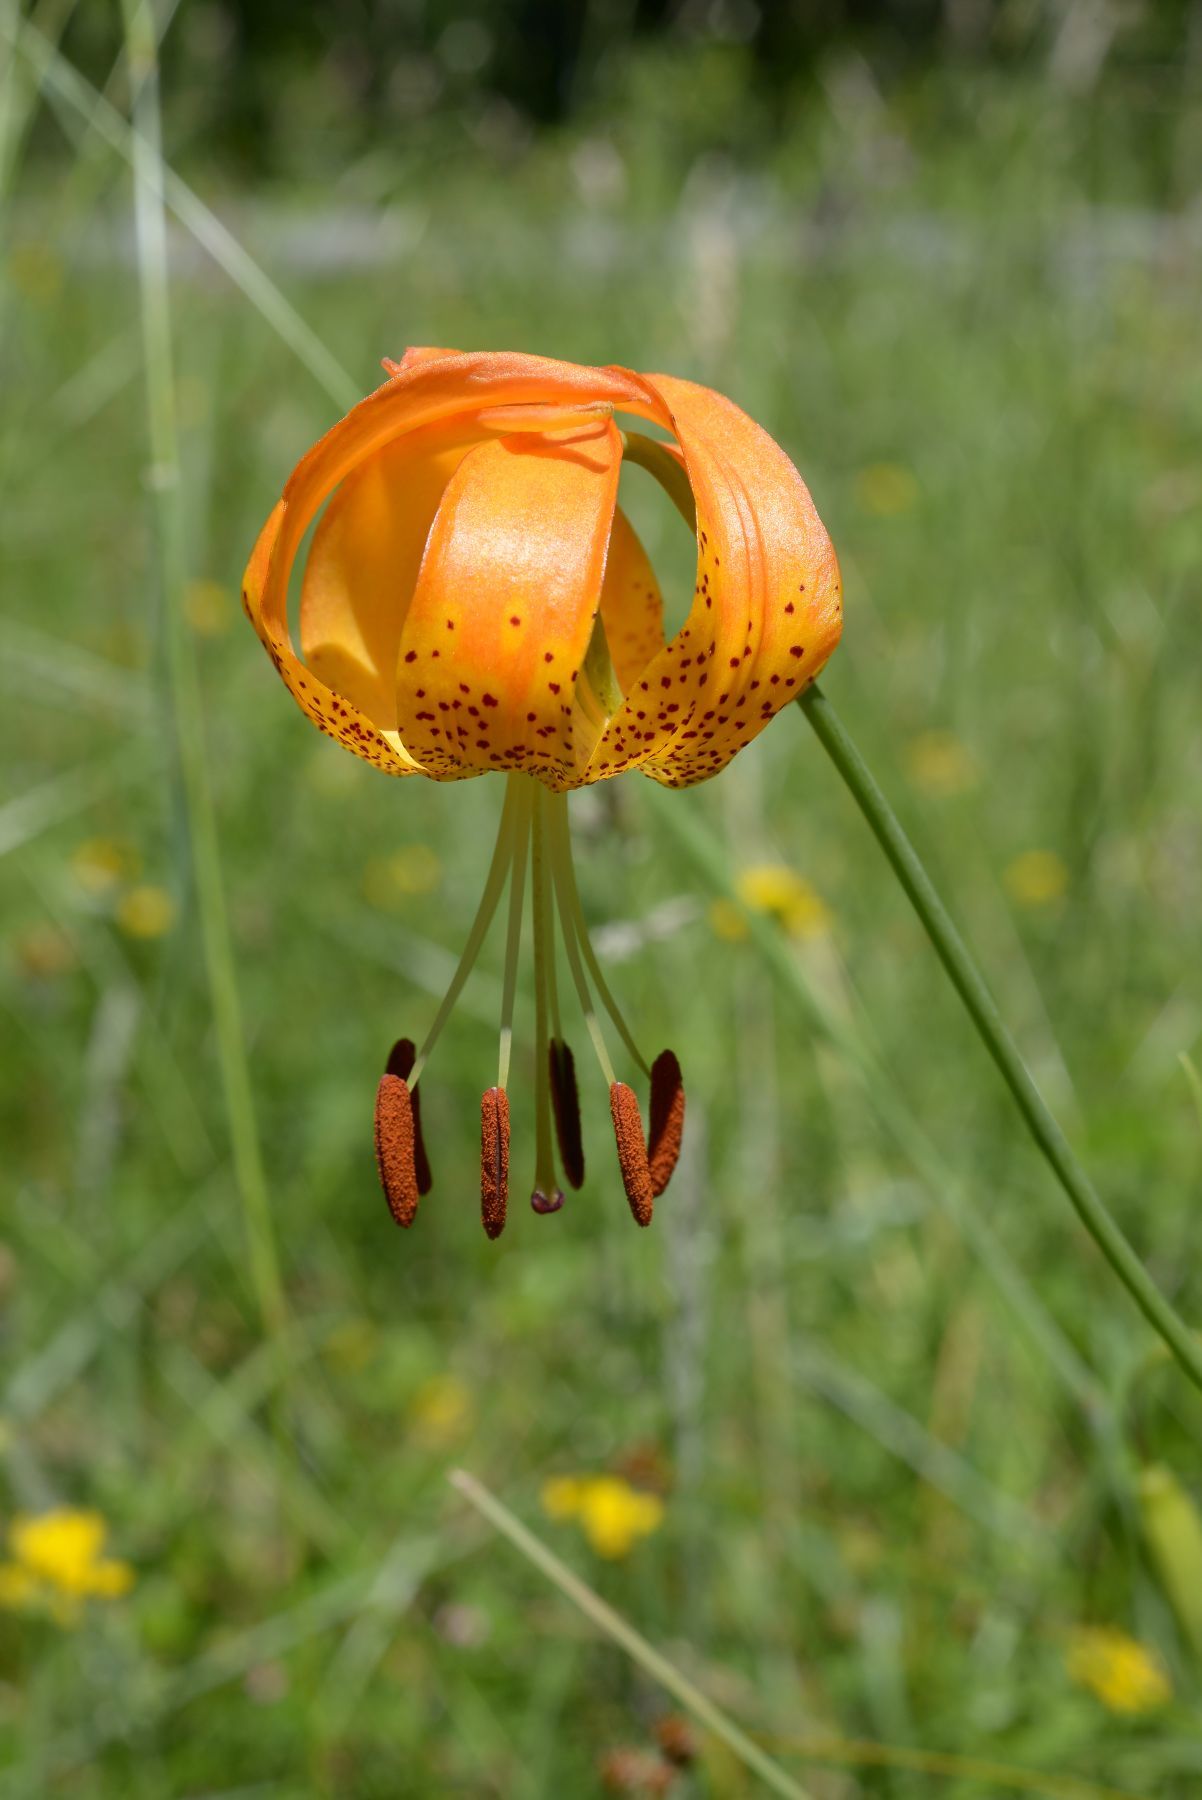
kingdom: Plantae
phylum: Tracheophyta
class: Liliopsida
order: Liliales
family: Liliaceae
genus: Lilium
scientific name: Lilium pardalinum
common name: Panther lily
